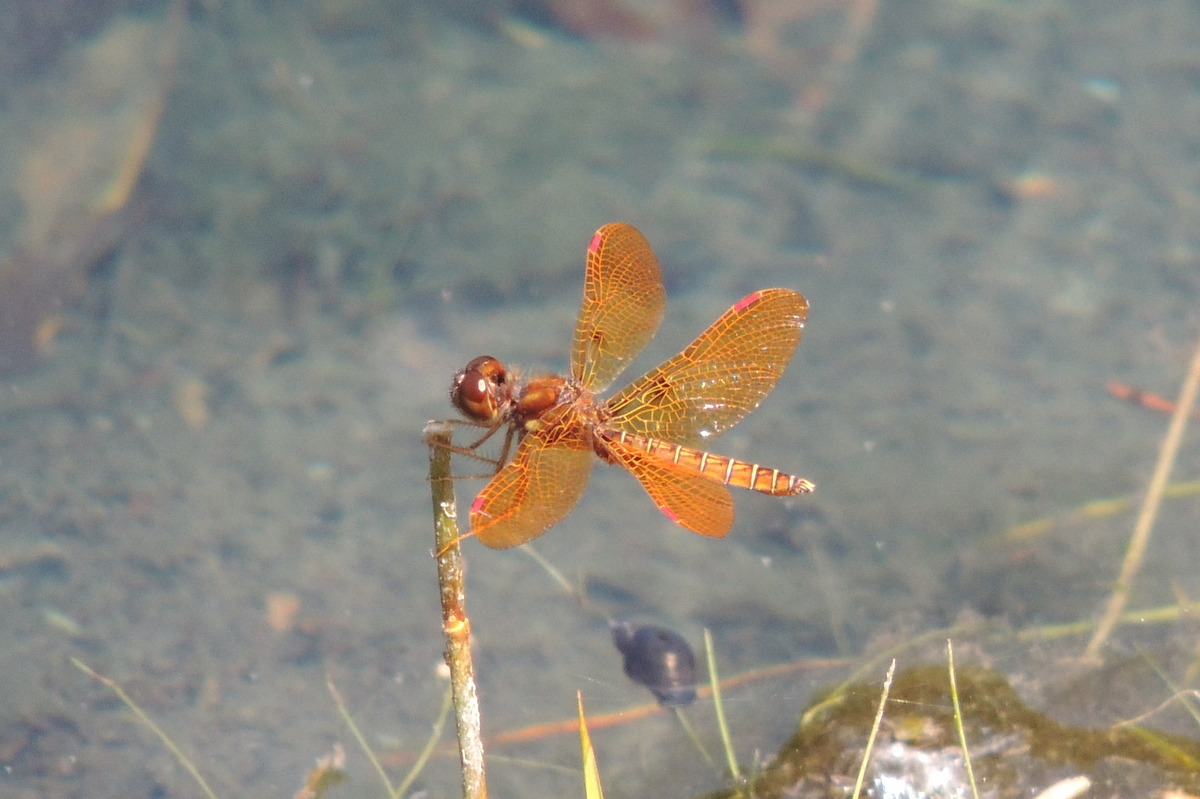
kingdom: Animalia
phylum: Arthropoda
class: Insecta
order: Odonata
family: Libellulidae
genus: Perithemis
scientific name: Perithemis tenera
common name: Eastern amberwing
